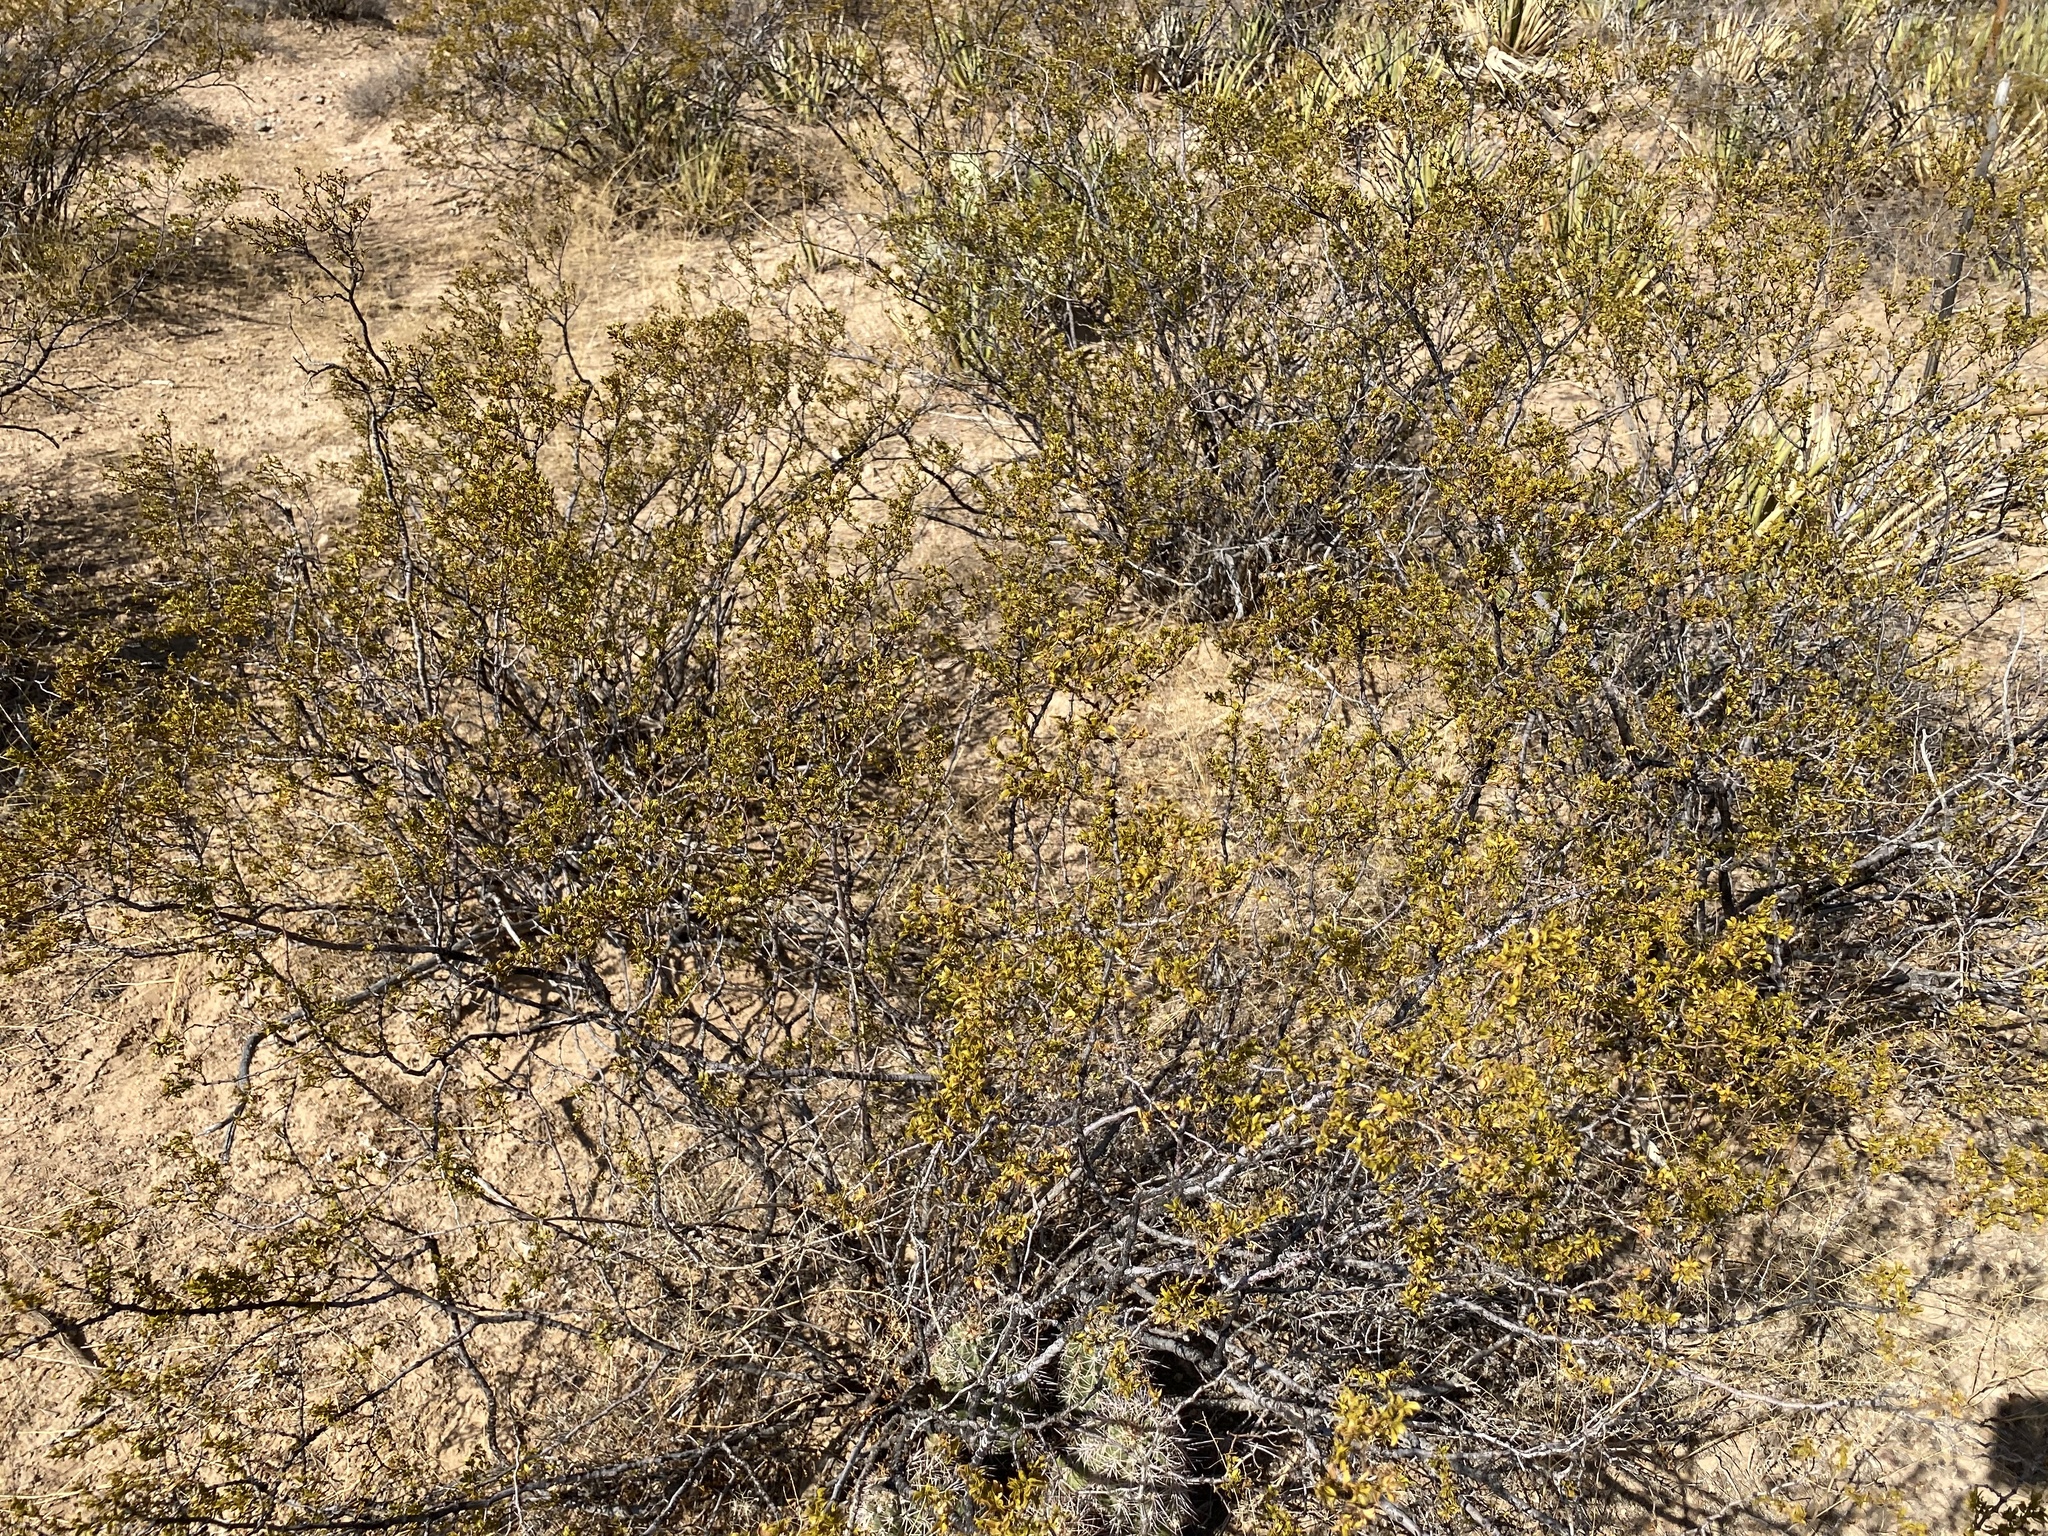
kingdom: Plantae
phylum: Tracheophyta
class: Magnoliopsida
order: Zygophyllales
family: Zygophyllaceae
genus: Larrea
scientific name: Larrea tridentata
